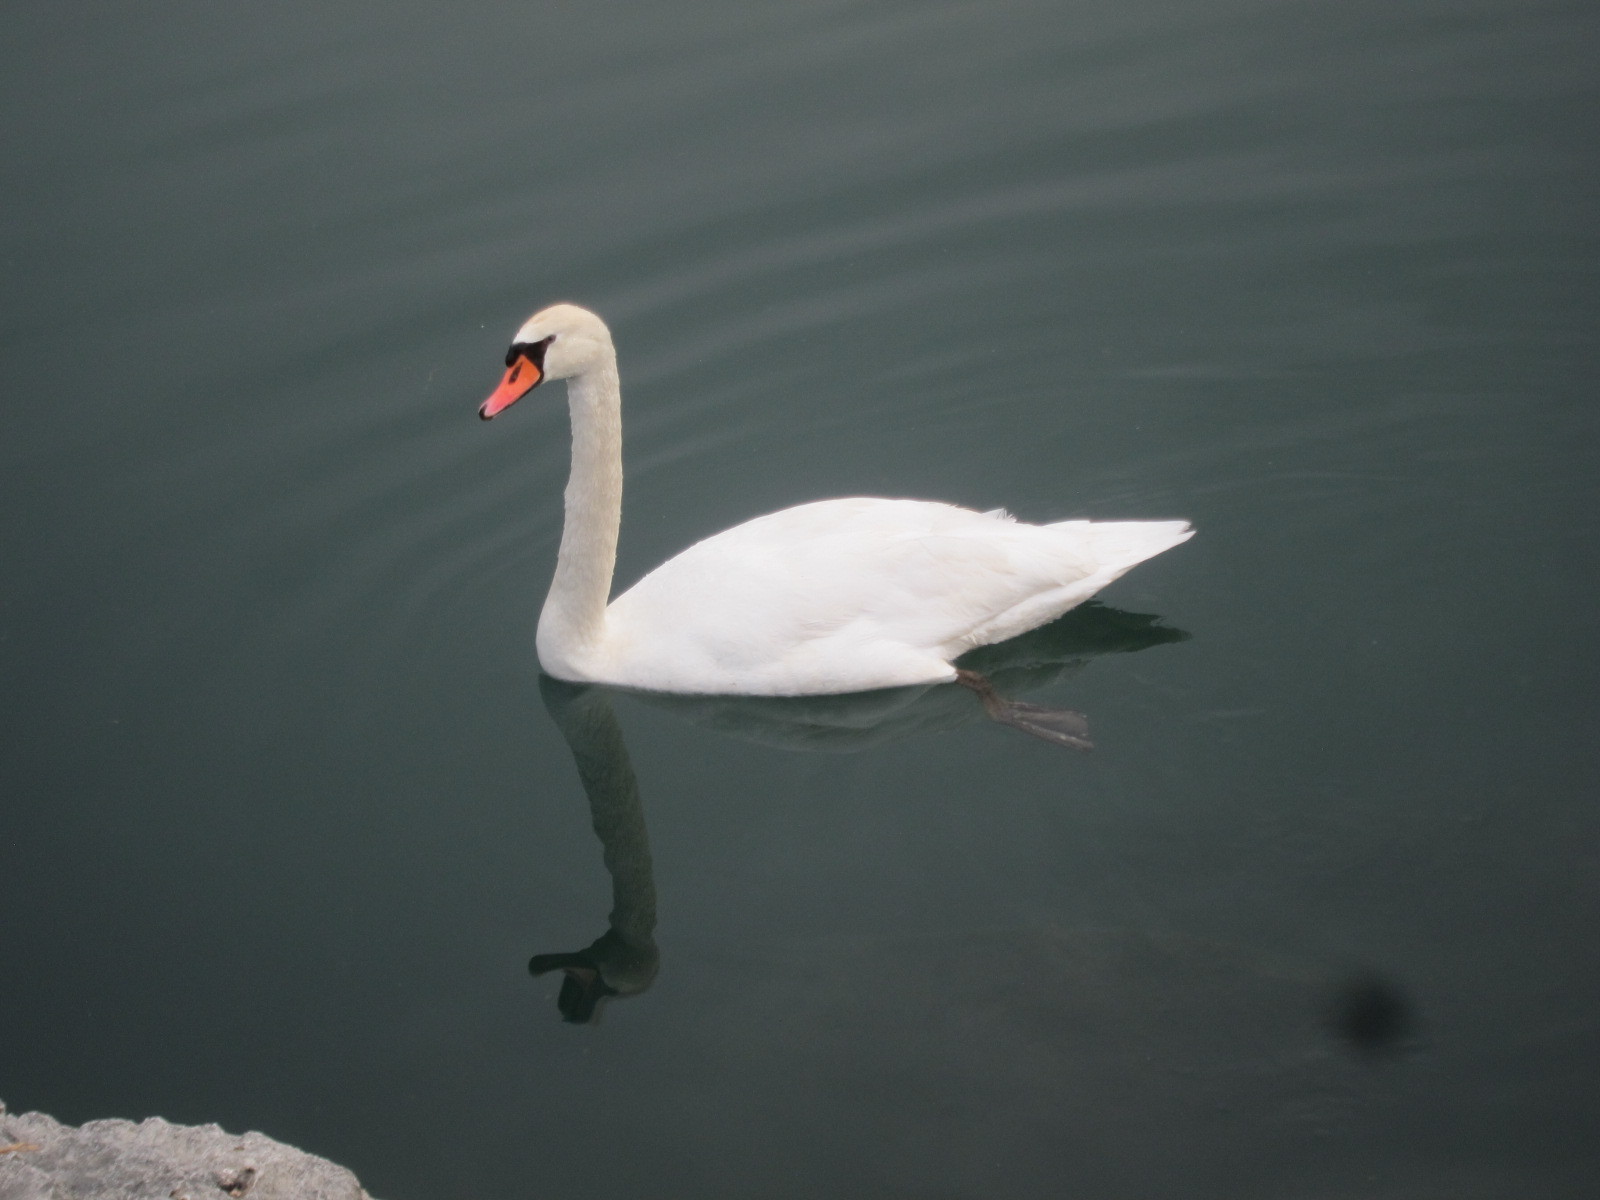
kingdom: Animalia
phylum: Chordata
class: Aves
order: Anseriformes
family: Anatidae
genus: Cygnus
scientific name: Cygnus olor
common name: Mute swan
